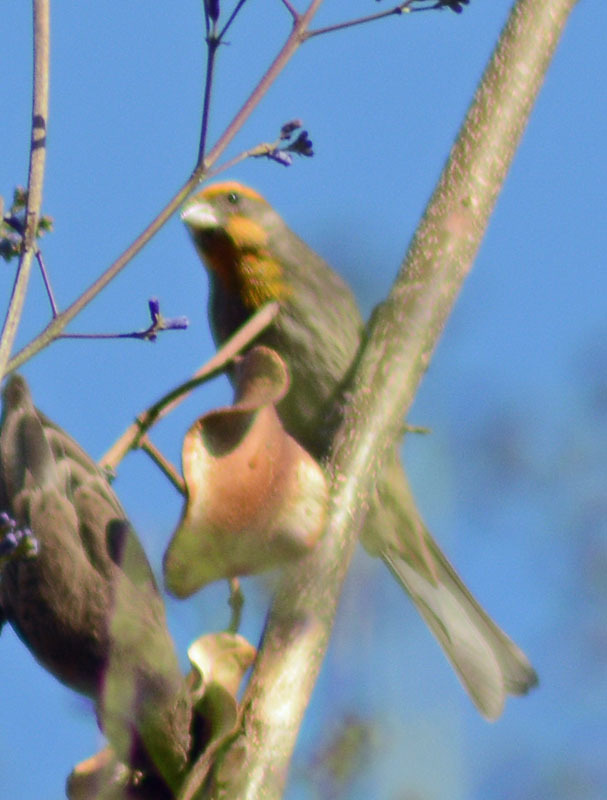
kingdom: Animalia
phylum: Chordata
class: Aves
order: Passeriformes
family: Fringillidae
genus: Haemorhous
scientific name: Haemorhous mexicanus
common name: House finch
